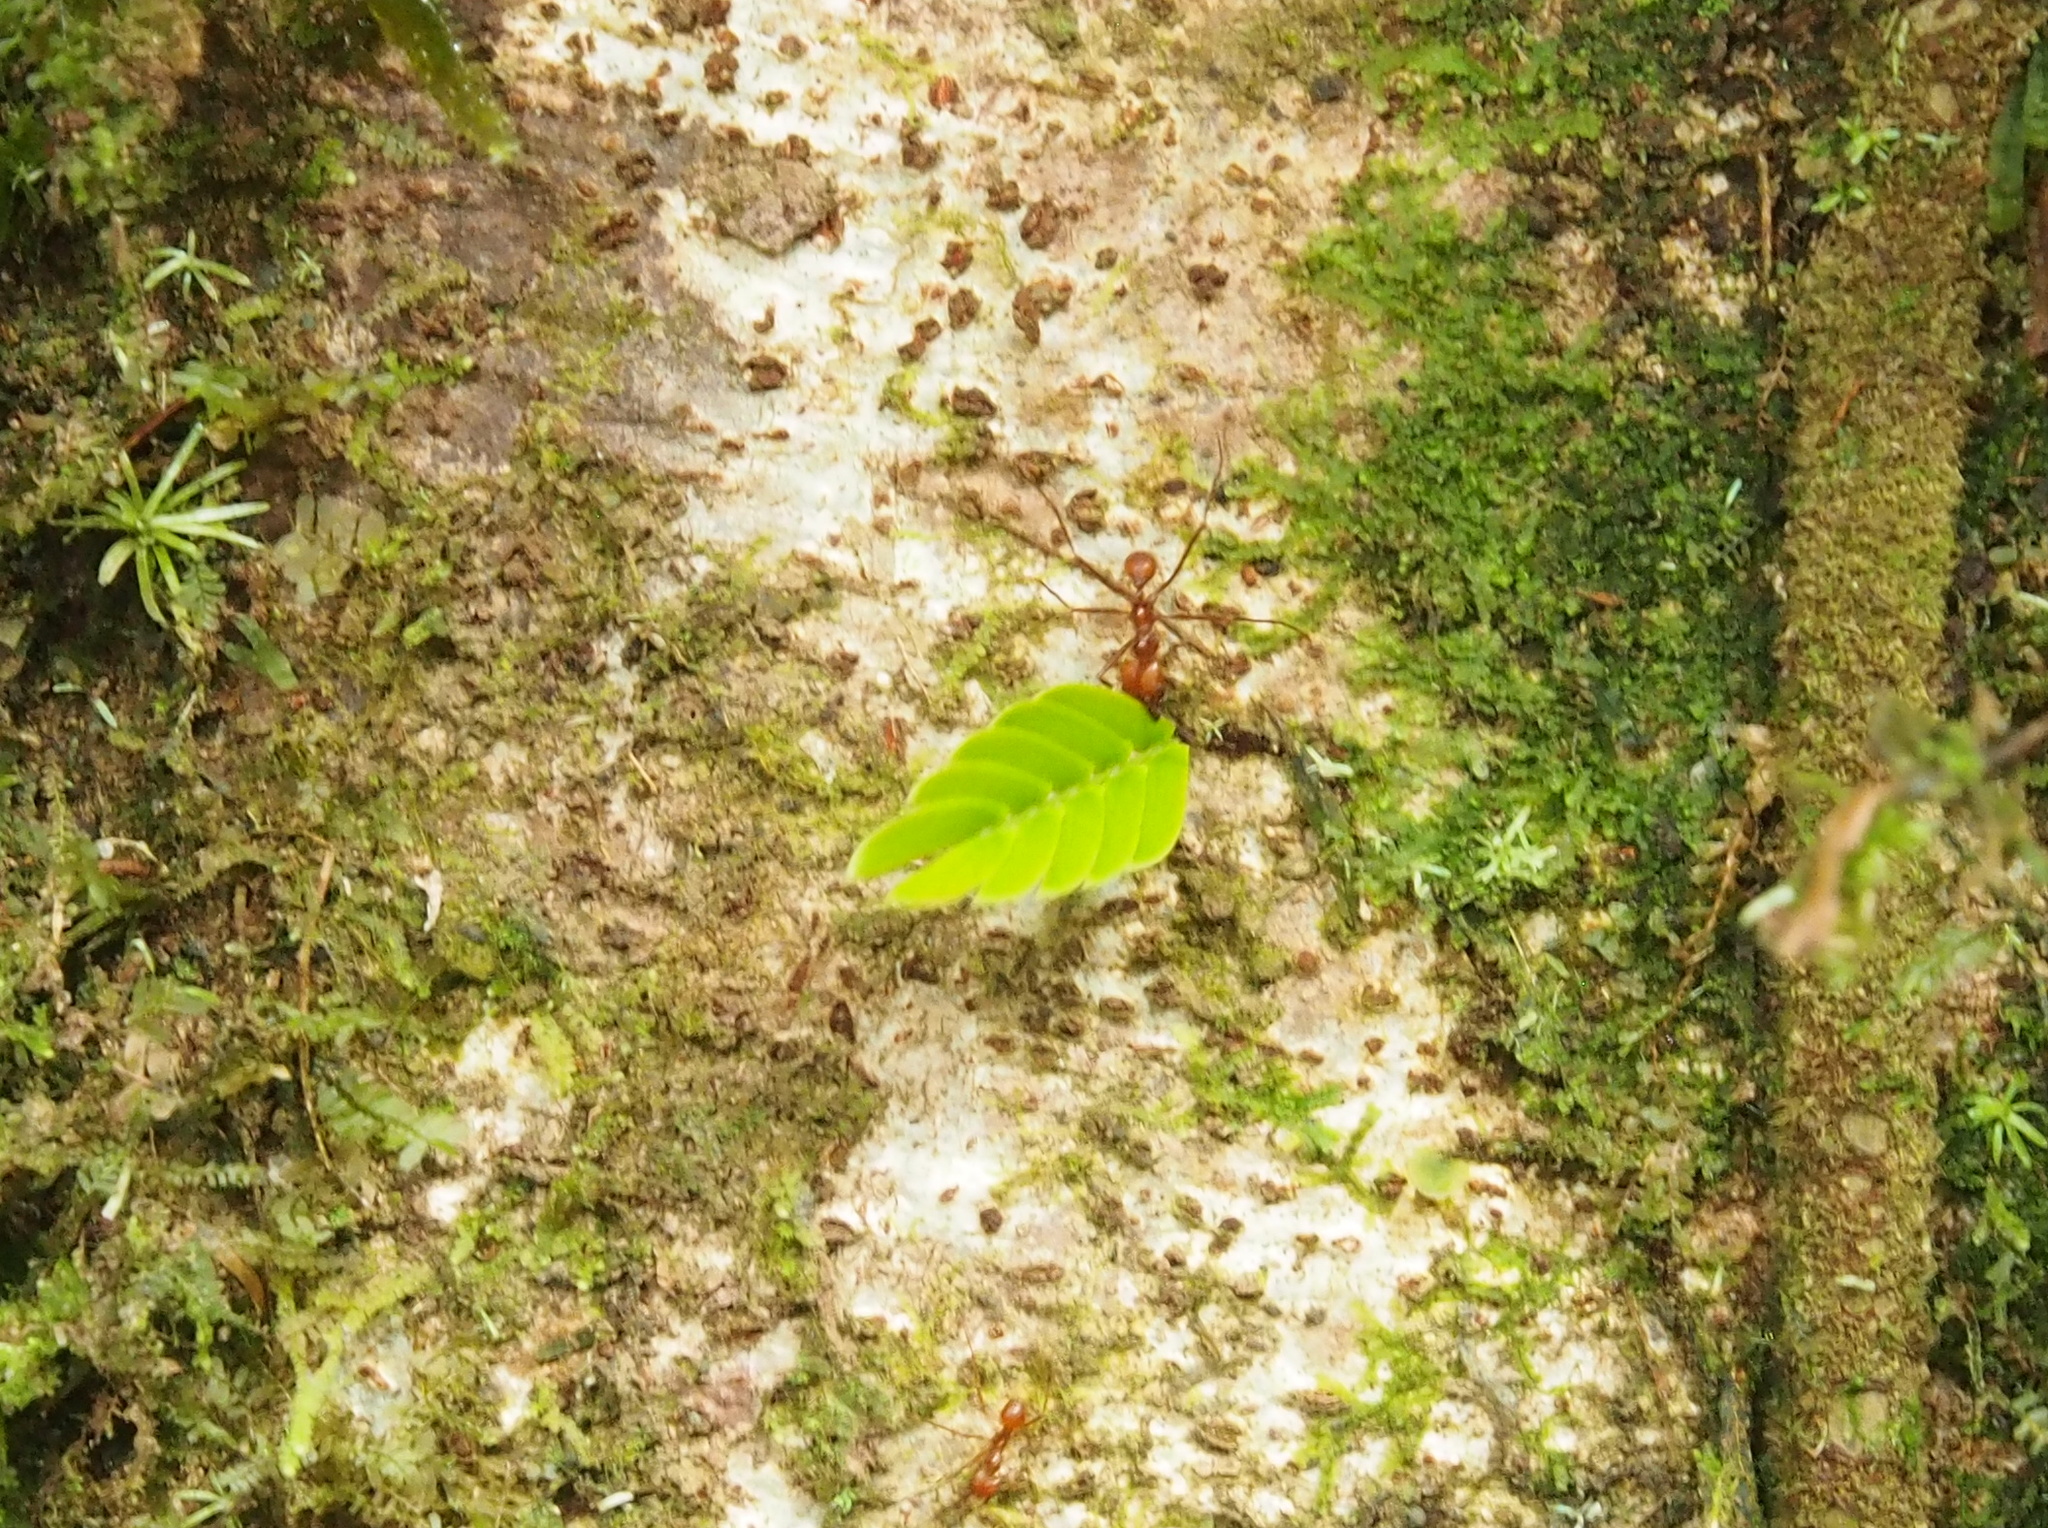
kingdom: Animalia
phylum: Arthropoda
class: Insecta
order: Hymenoptera
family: Formicidae
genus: Atta
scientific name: Atta cephalotes
